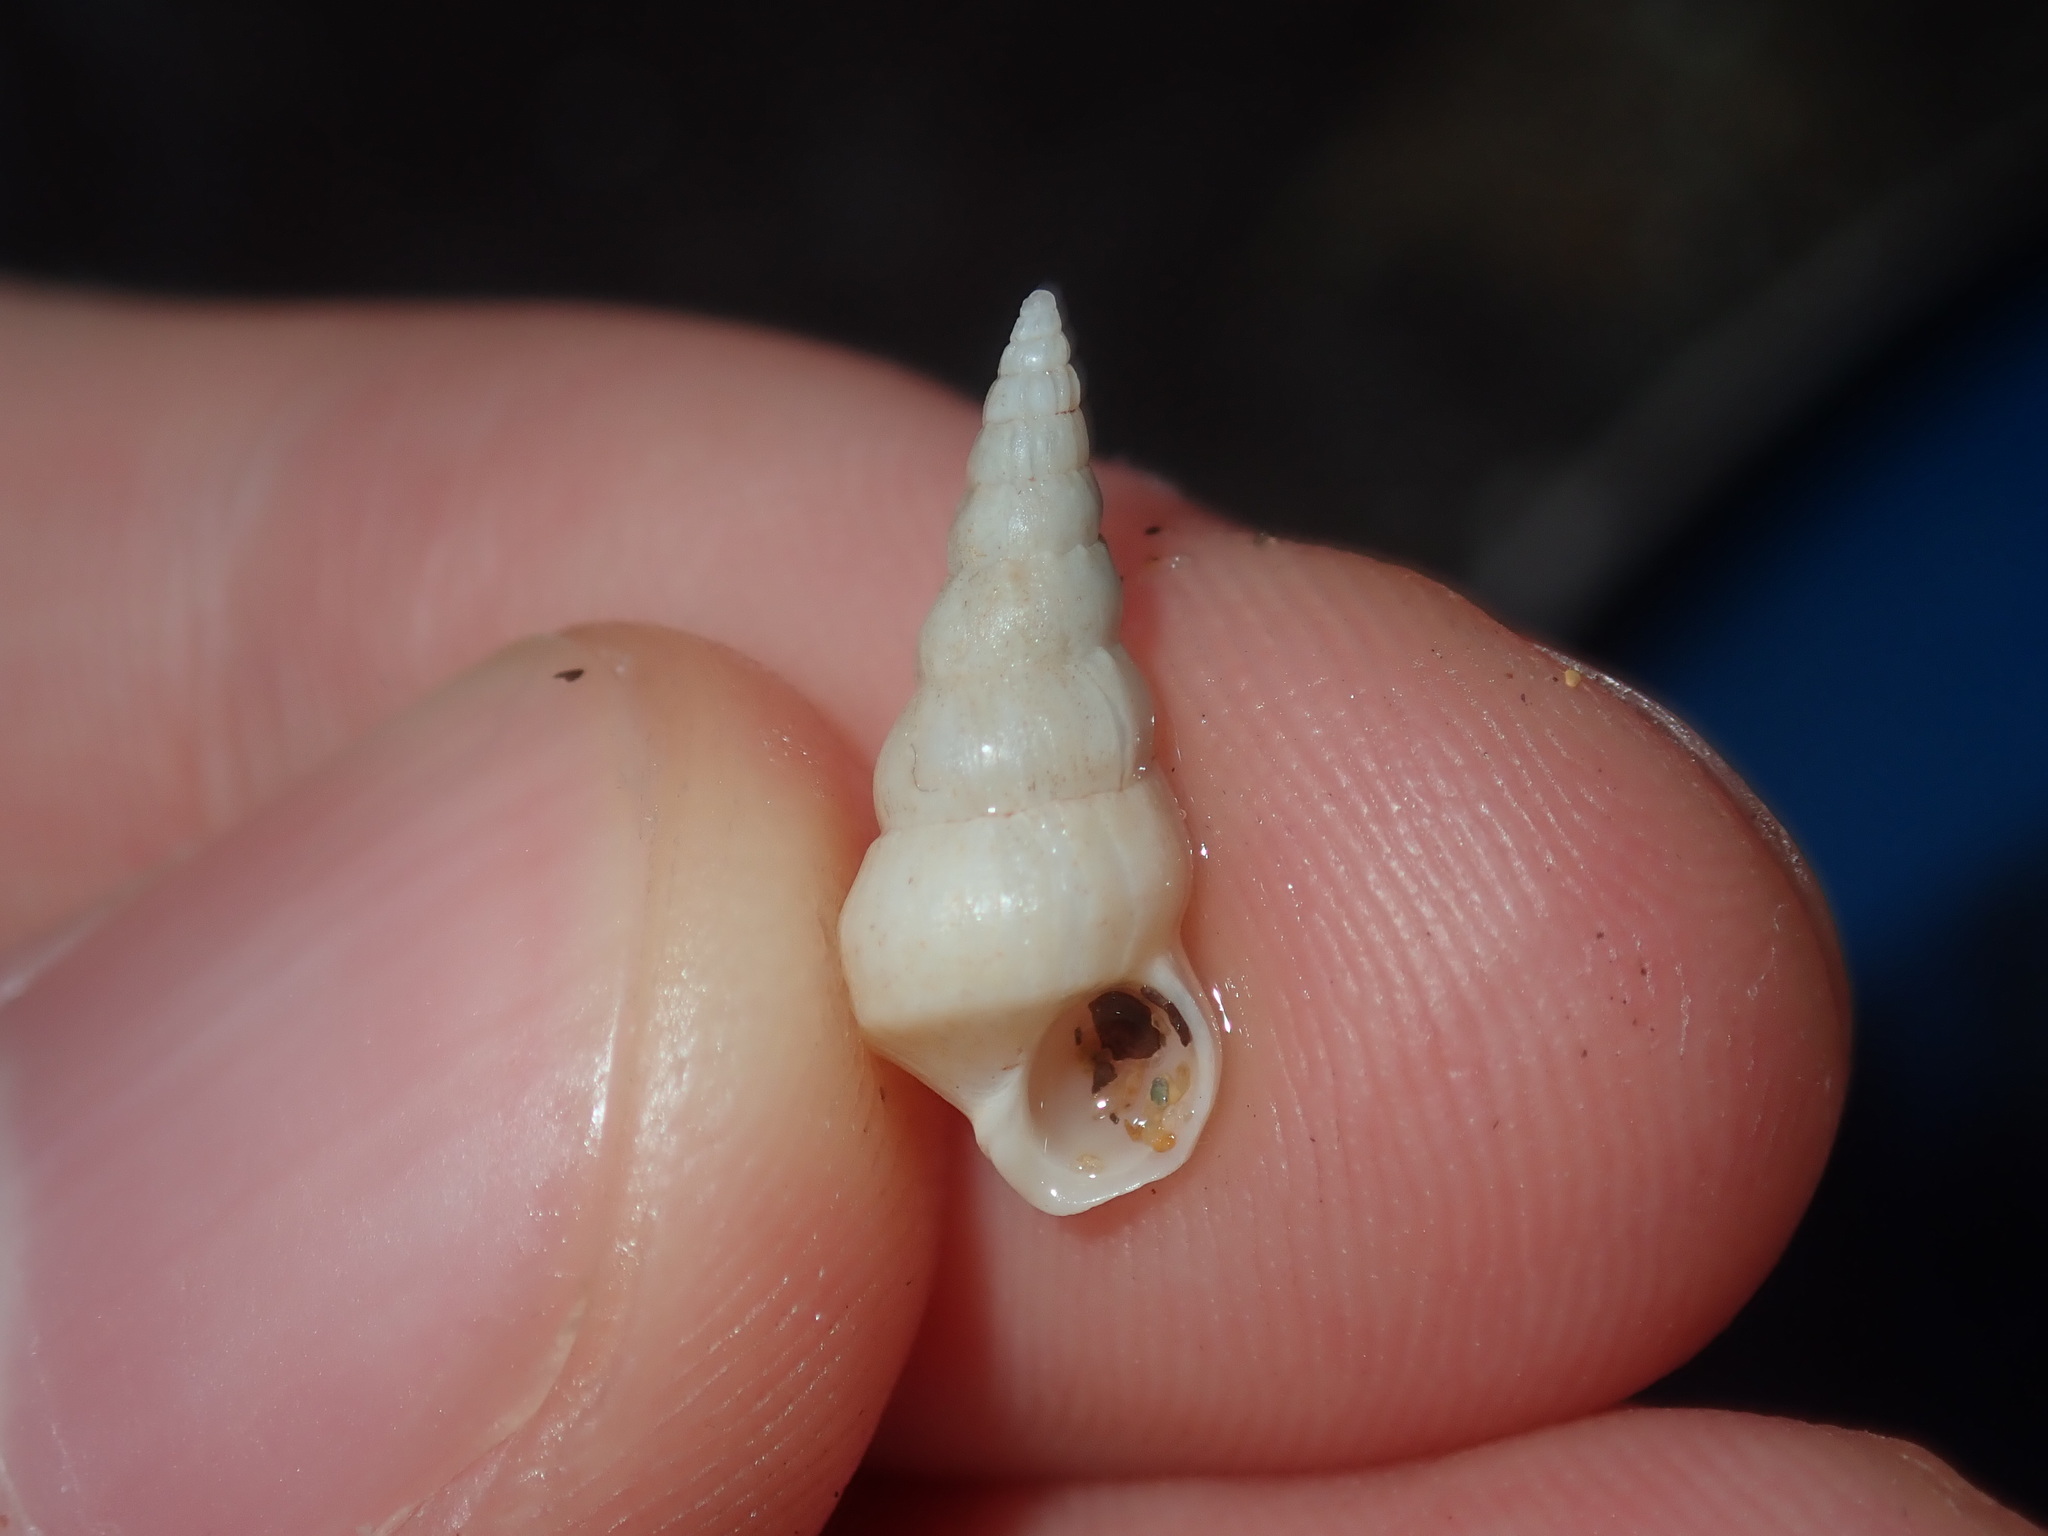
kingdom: Animalia
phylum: Mollusca
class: Gastropoda
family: Epitoniidae
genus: Opalia
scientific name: Opalia ballinensis
